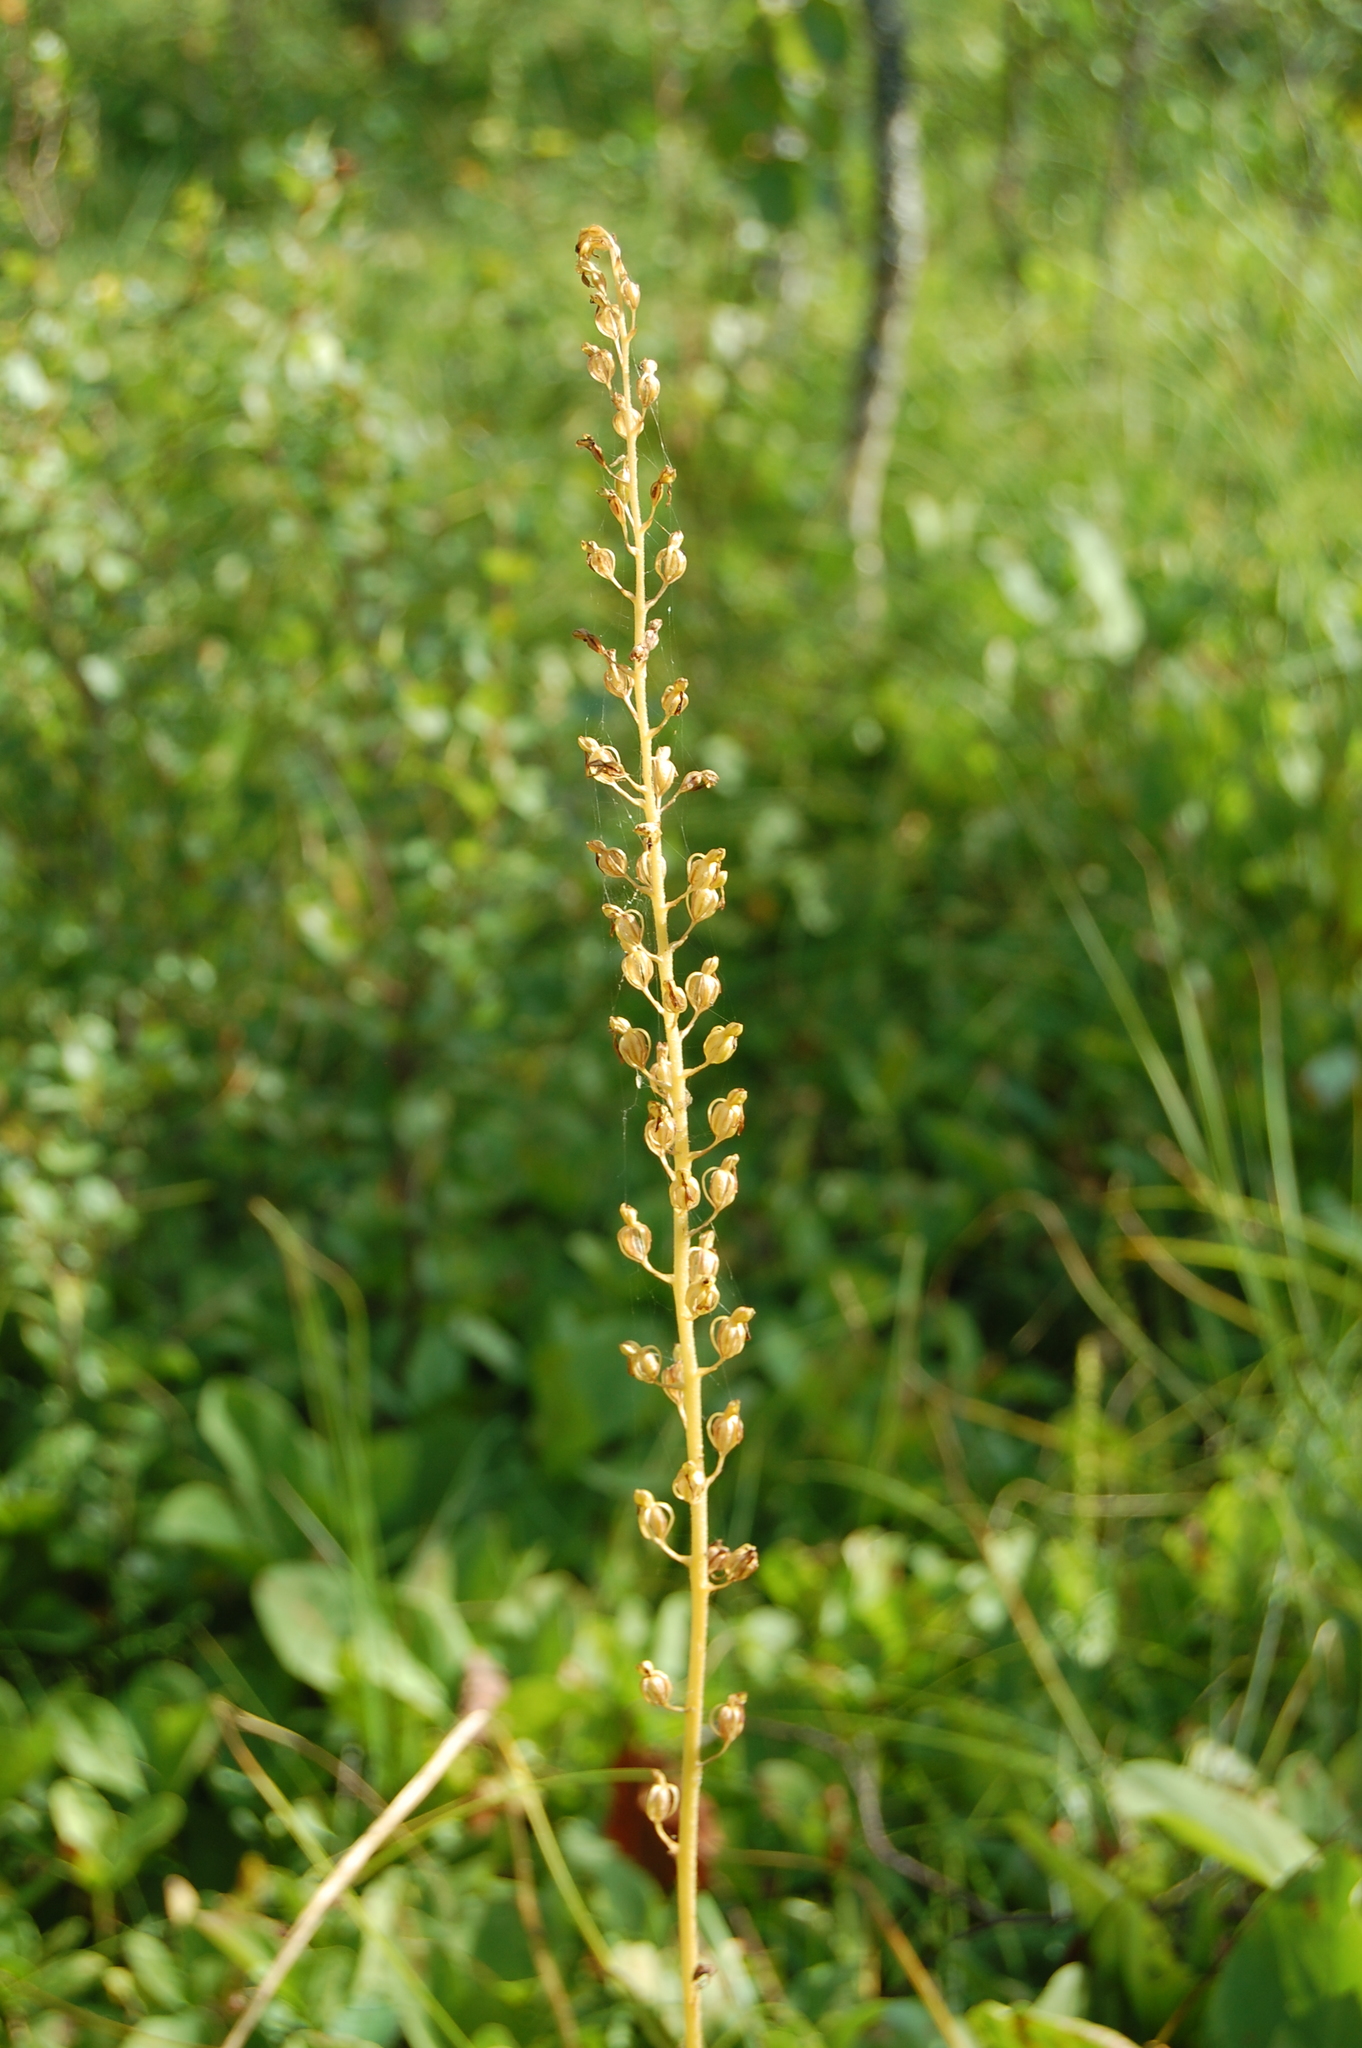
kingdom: Plantae
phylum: Tracheophyta
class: Liliopsida
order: Asparagales
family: Orchidaceae
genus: Neottia
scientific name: Neottia ovata
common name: Common twayblade
